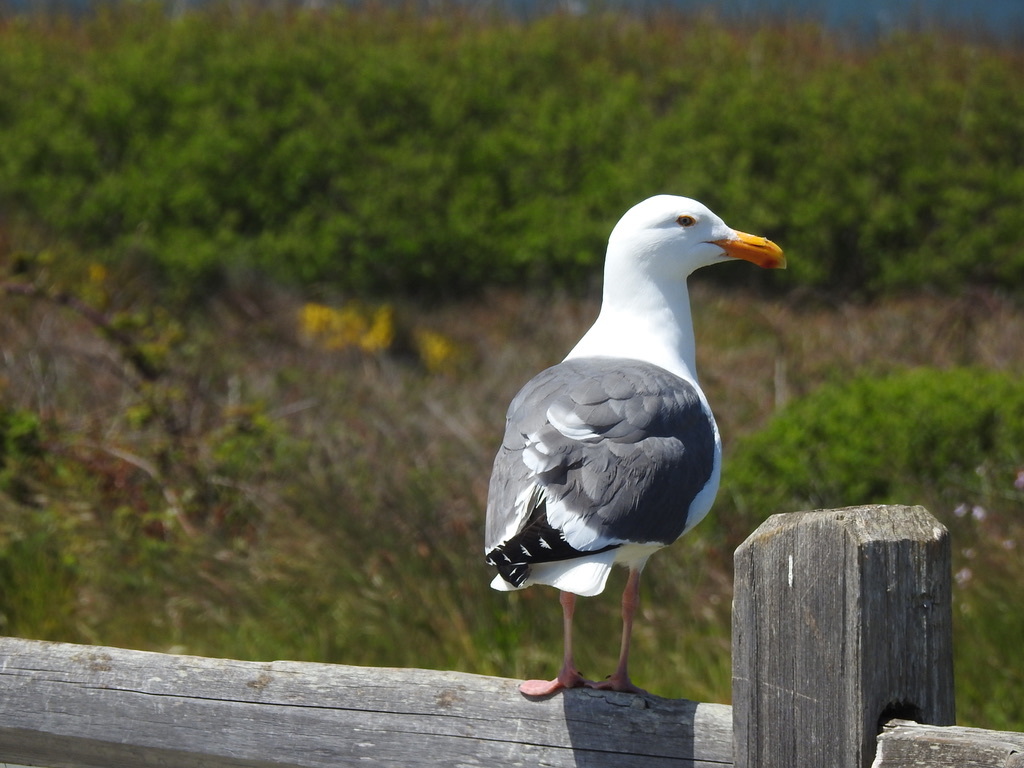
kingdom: Animalia
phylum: Chordata
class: Aves
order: Charadriiformes
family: Laridae
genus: Larus
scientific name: Larus occidentalis
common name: Western gull
